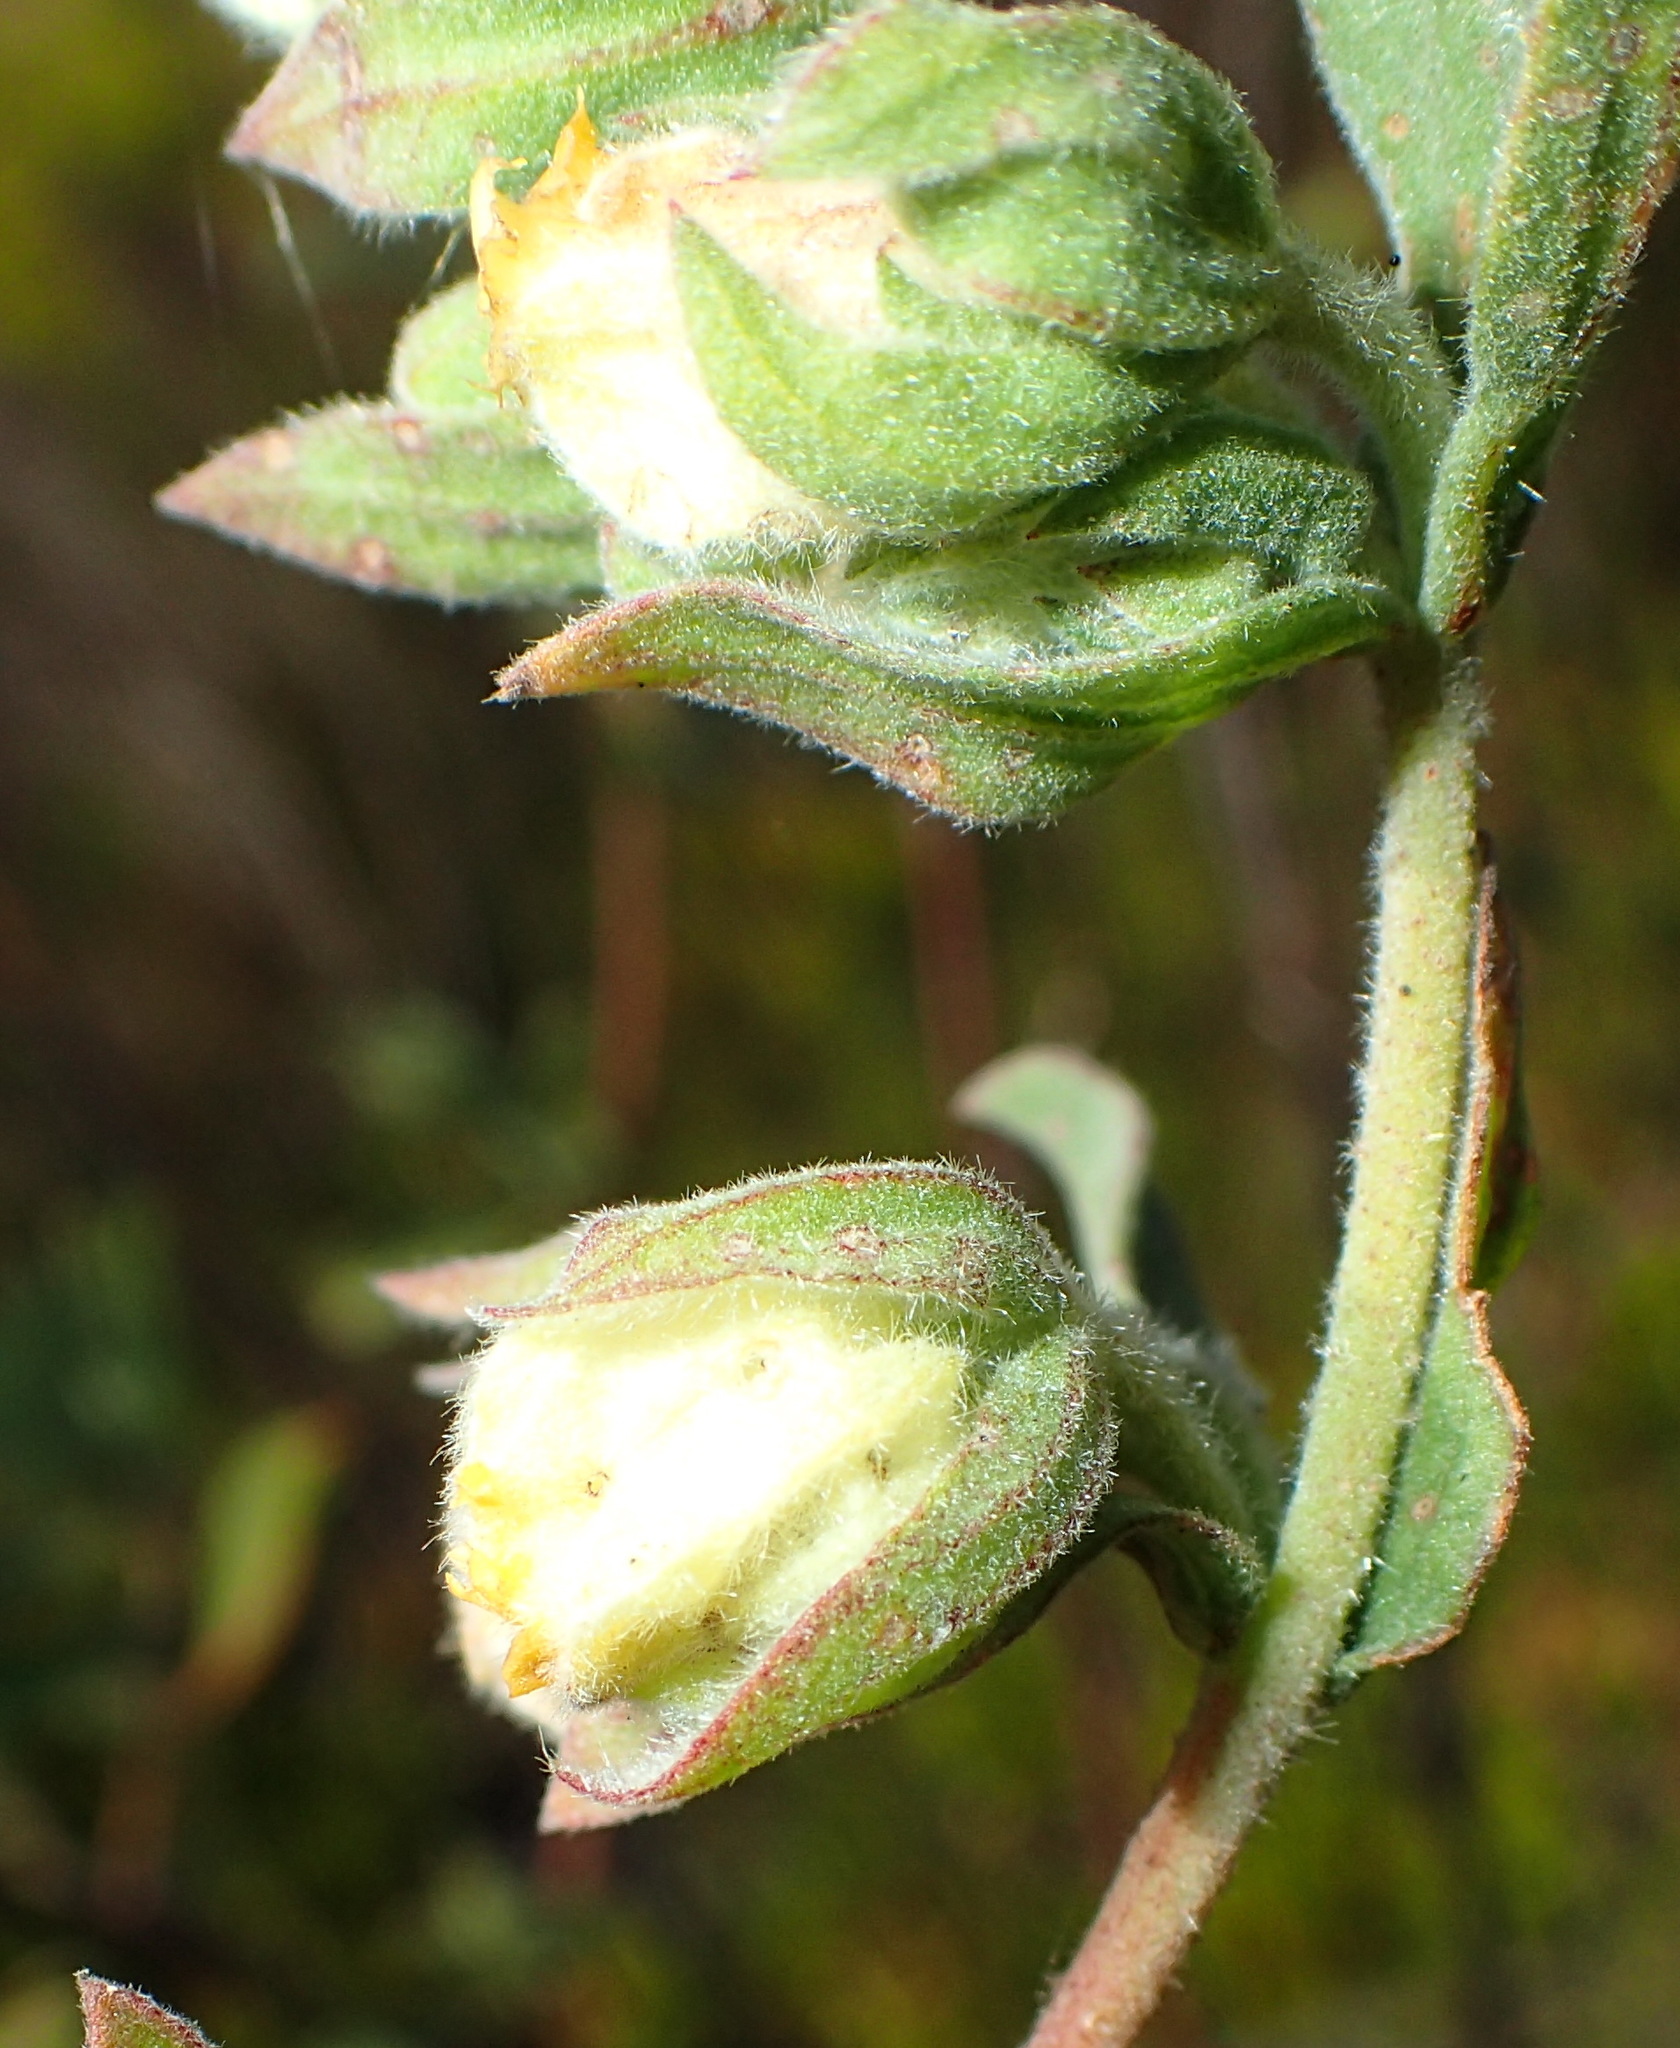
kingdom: Plantae
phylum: Tracheophyta
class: Magnoliopsida
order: Malvales
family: Malvaceae
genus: Hermannia
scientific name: Hermannia hyssopifolia
